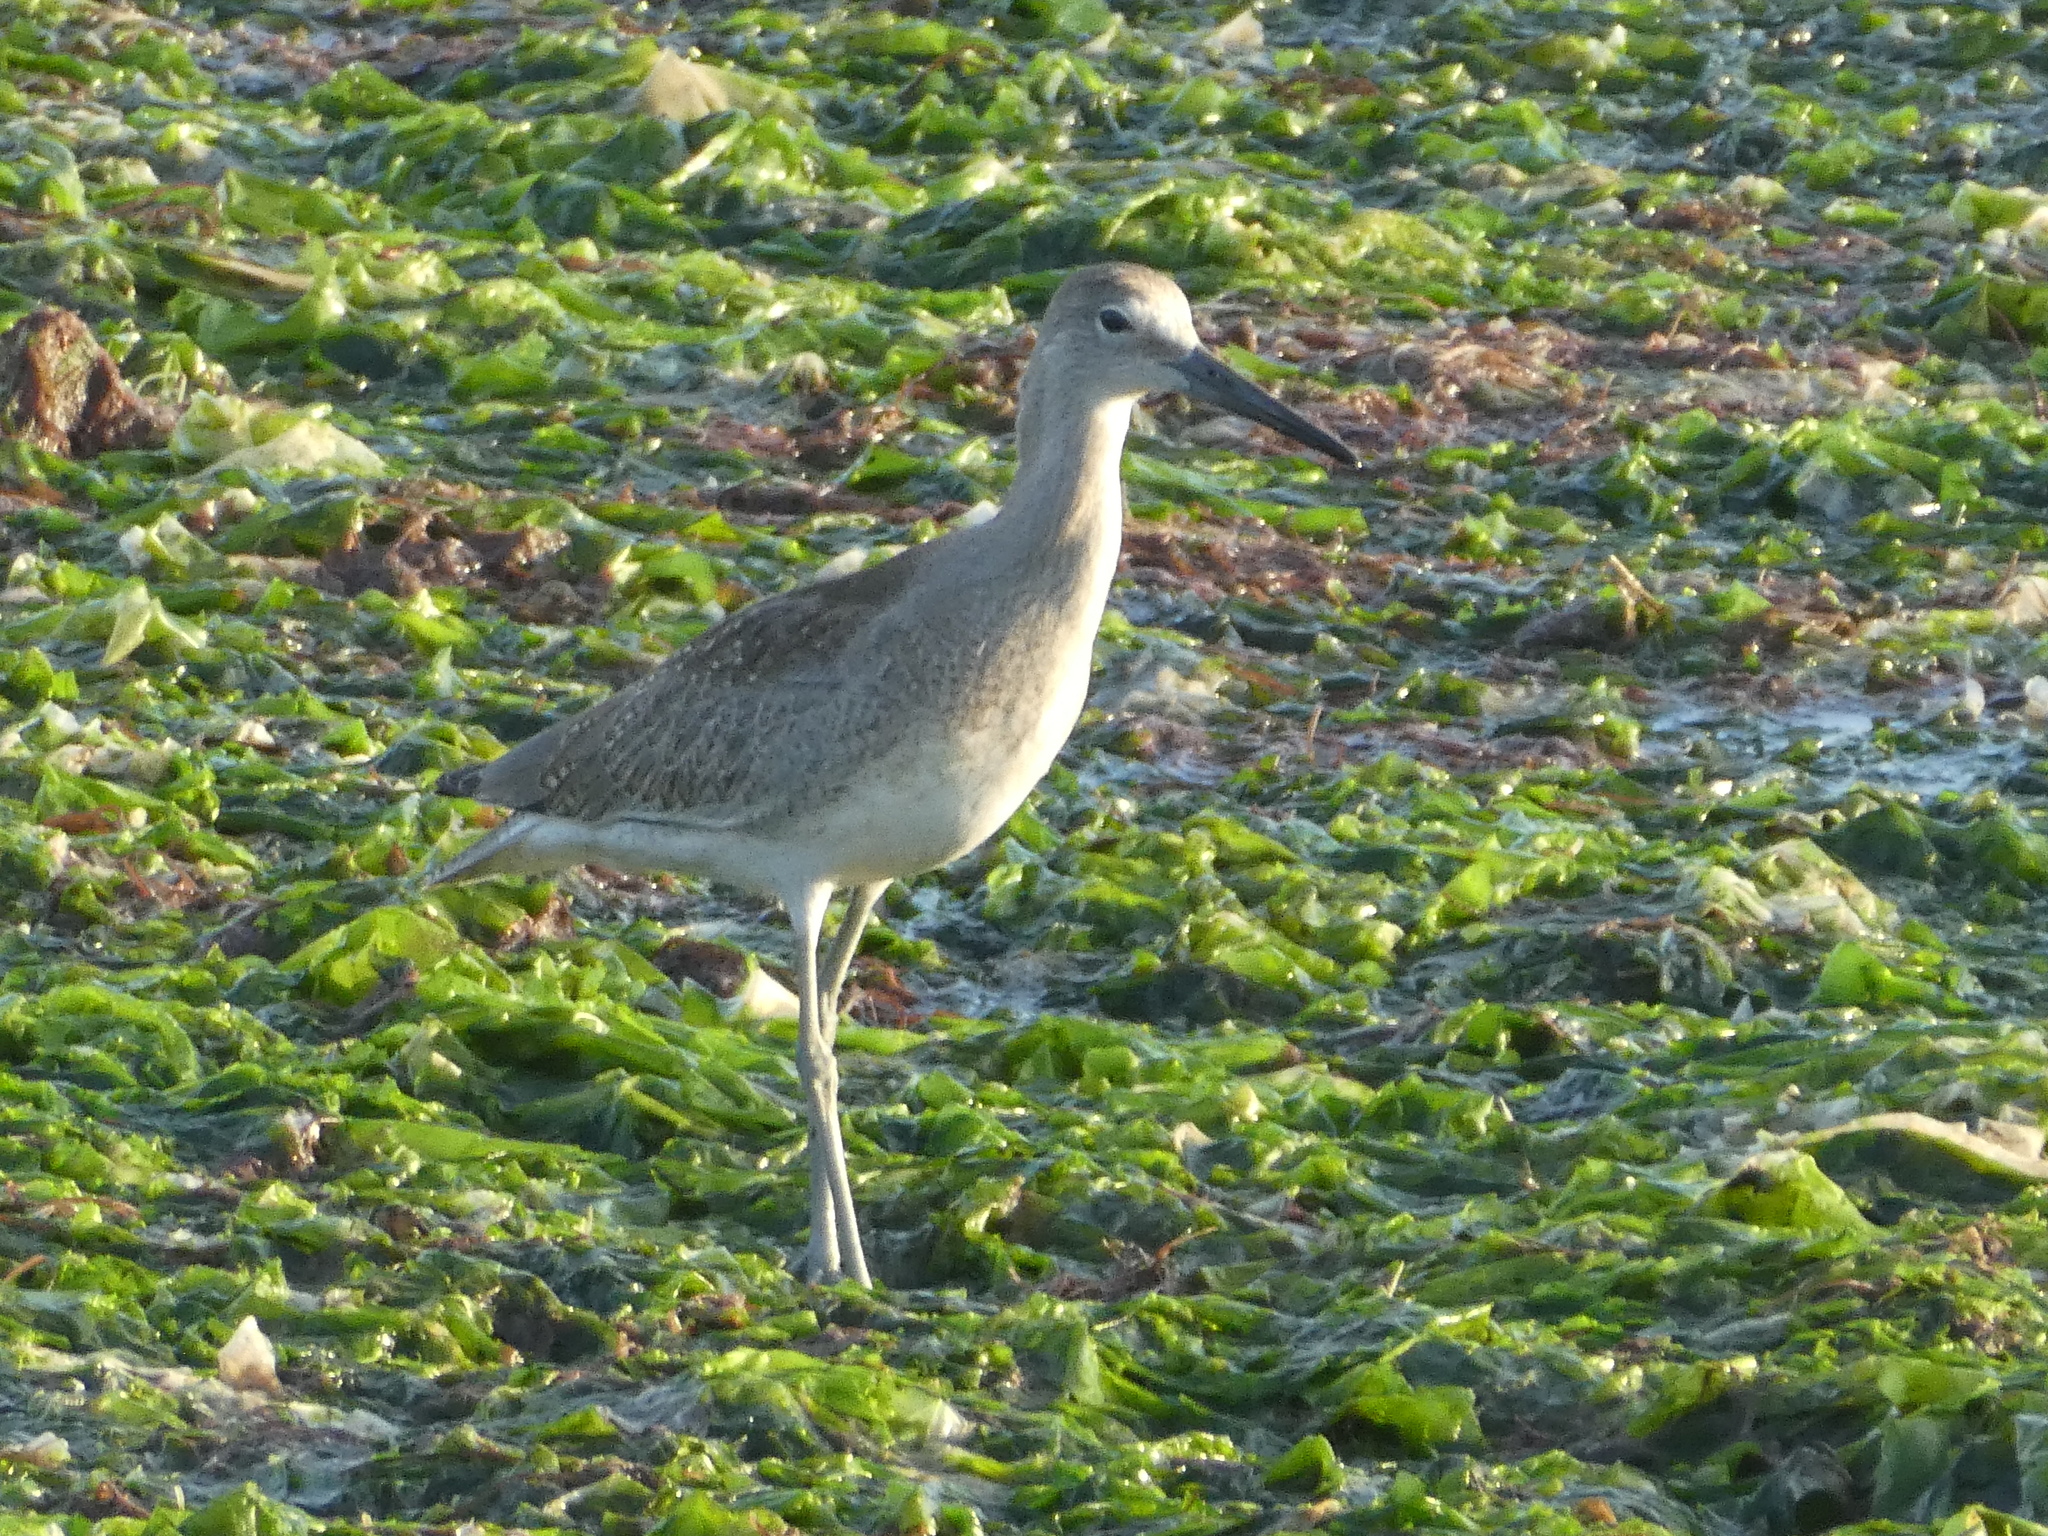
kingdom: Animalia
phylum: Chordata
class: Aves
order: Charadriiformes
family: Scolopacidae
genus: Tringa
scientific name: Tringa semipalmata
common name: Willet
